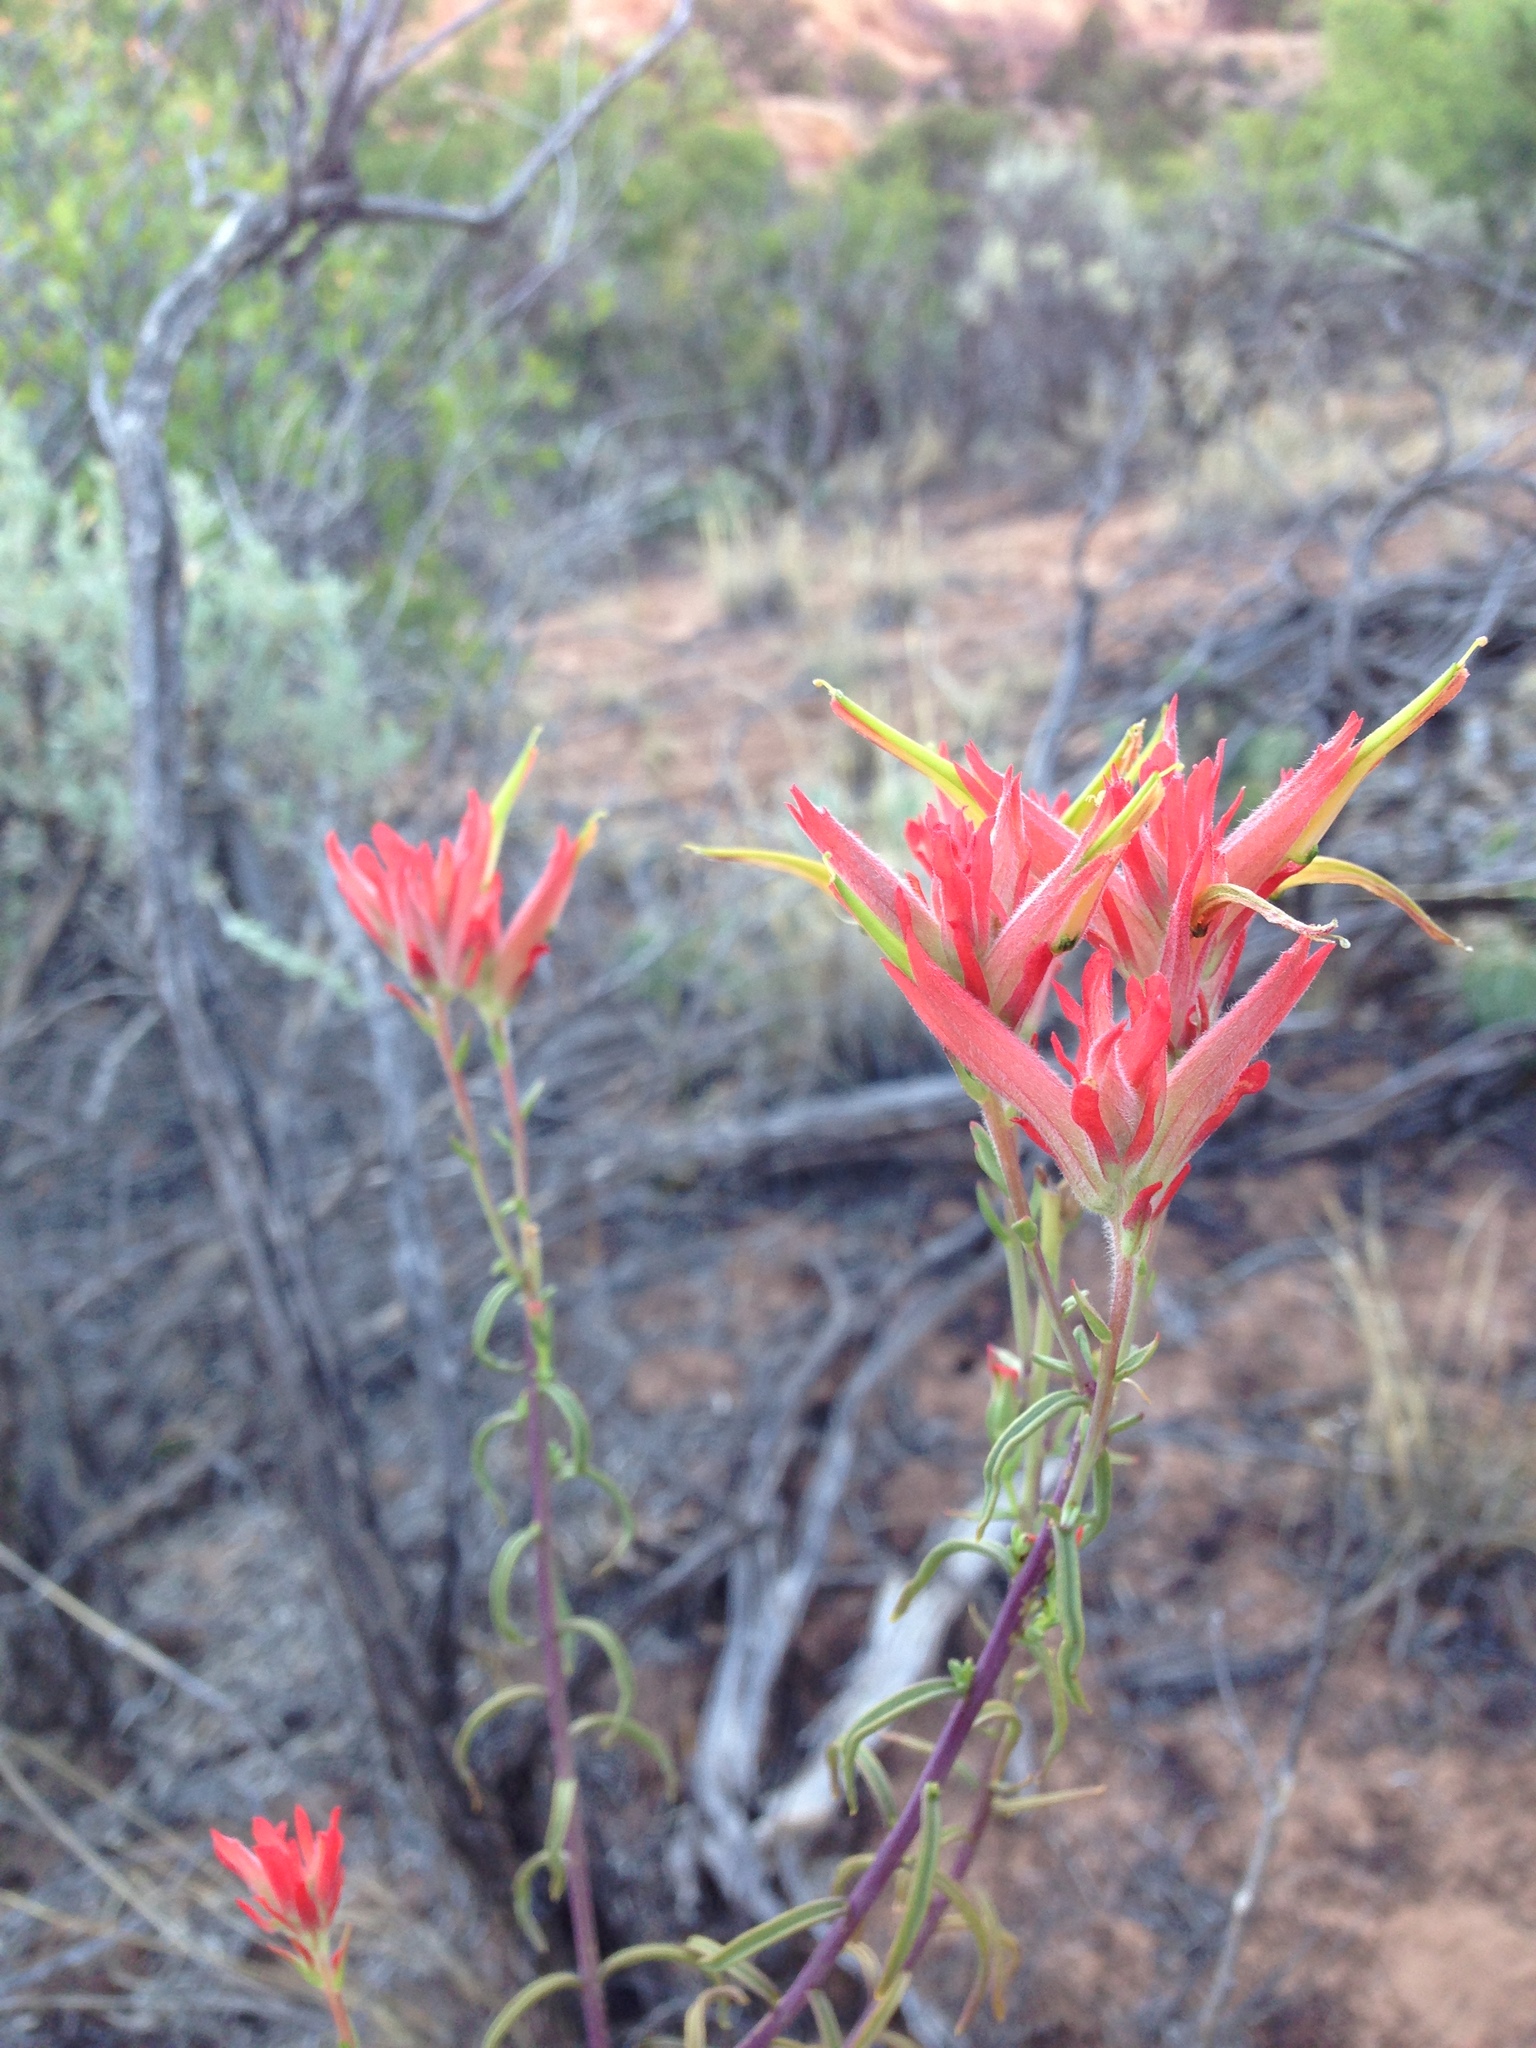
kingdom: Plantae
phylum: Tracheophyta
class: Magnoliopsida
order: Lamiales
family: Orobanchaceae
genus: Castilleja
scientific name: Castilleja linariifolia
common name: Wyoming paintbrush
